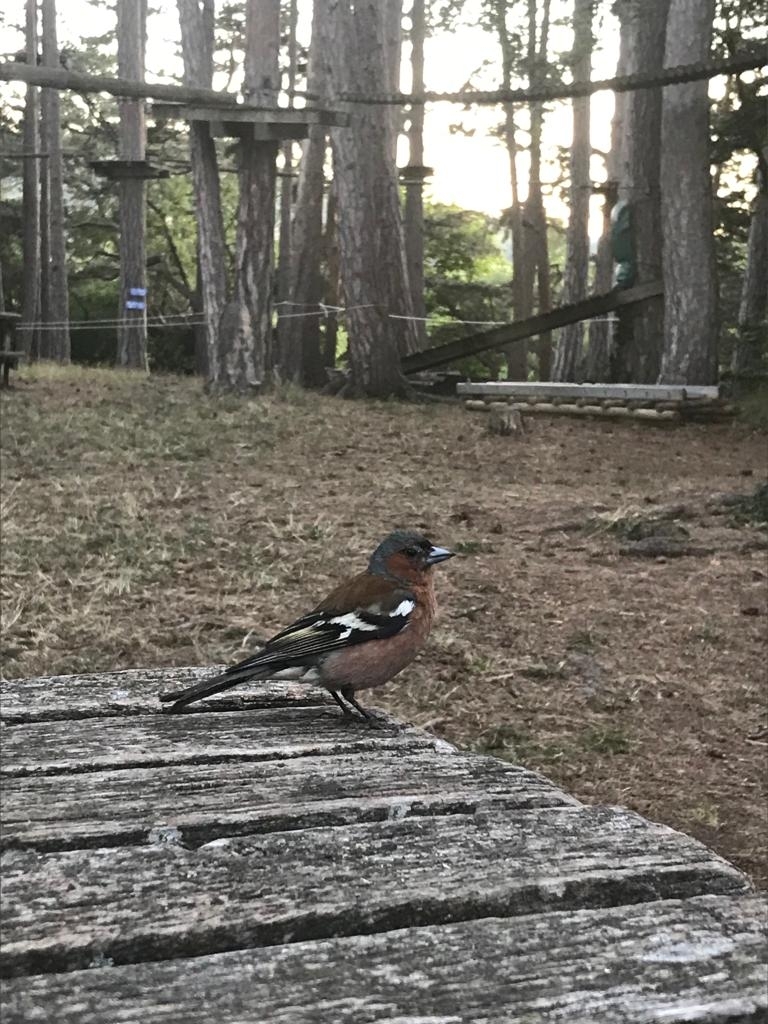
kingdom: Animalia
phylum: Chordata
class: Aves
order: Passeriformes
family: Fringillidae
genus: Fringilla
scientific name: Fringilla coelebs
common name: Common chaffinch
